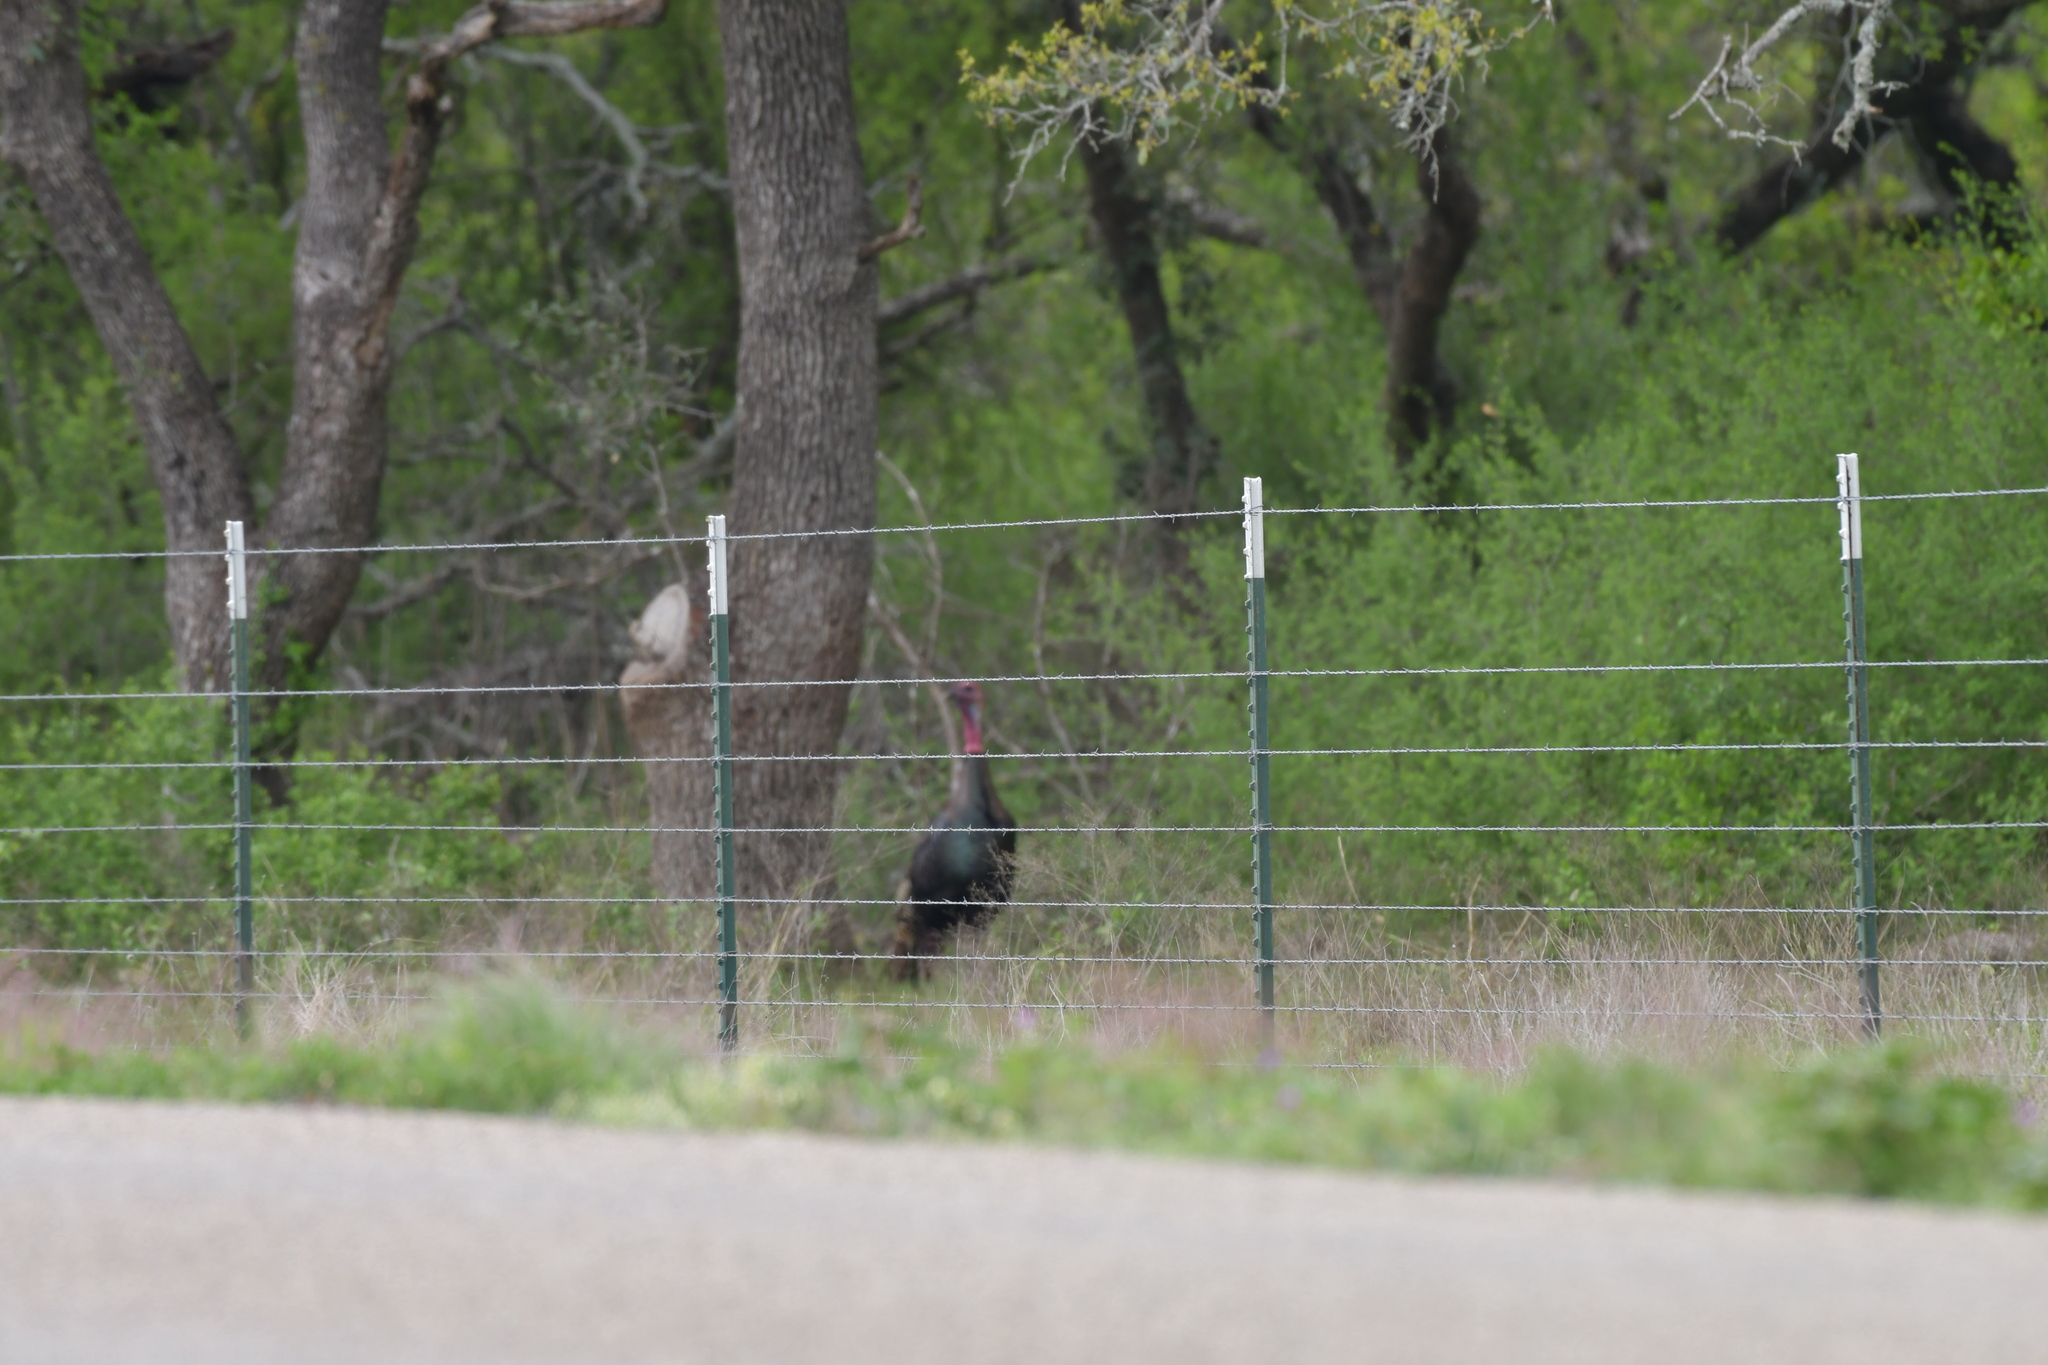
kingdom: Animalia
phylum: Chordata
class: Aves
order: Galliformes
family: Phasianidae
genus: Meleagris
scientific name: Meleagris gallopavo
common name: Wild turkey
